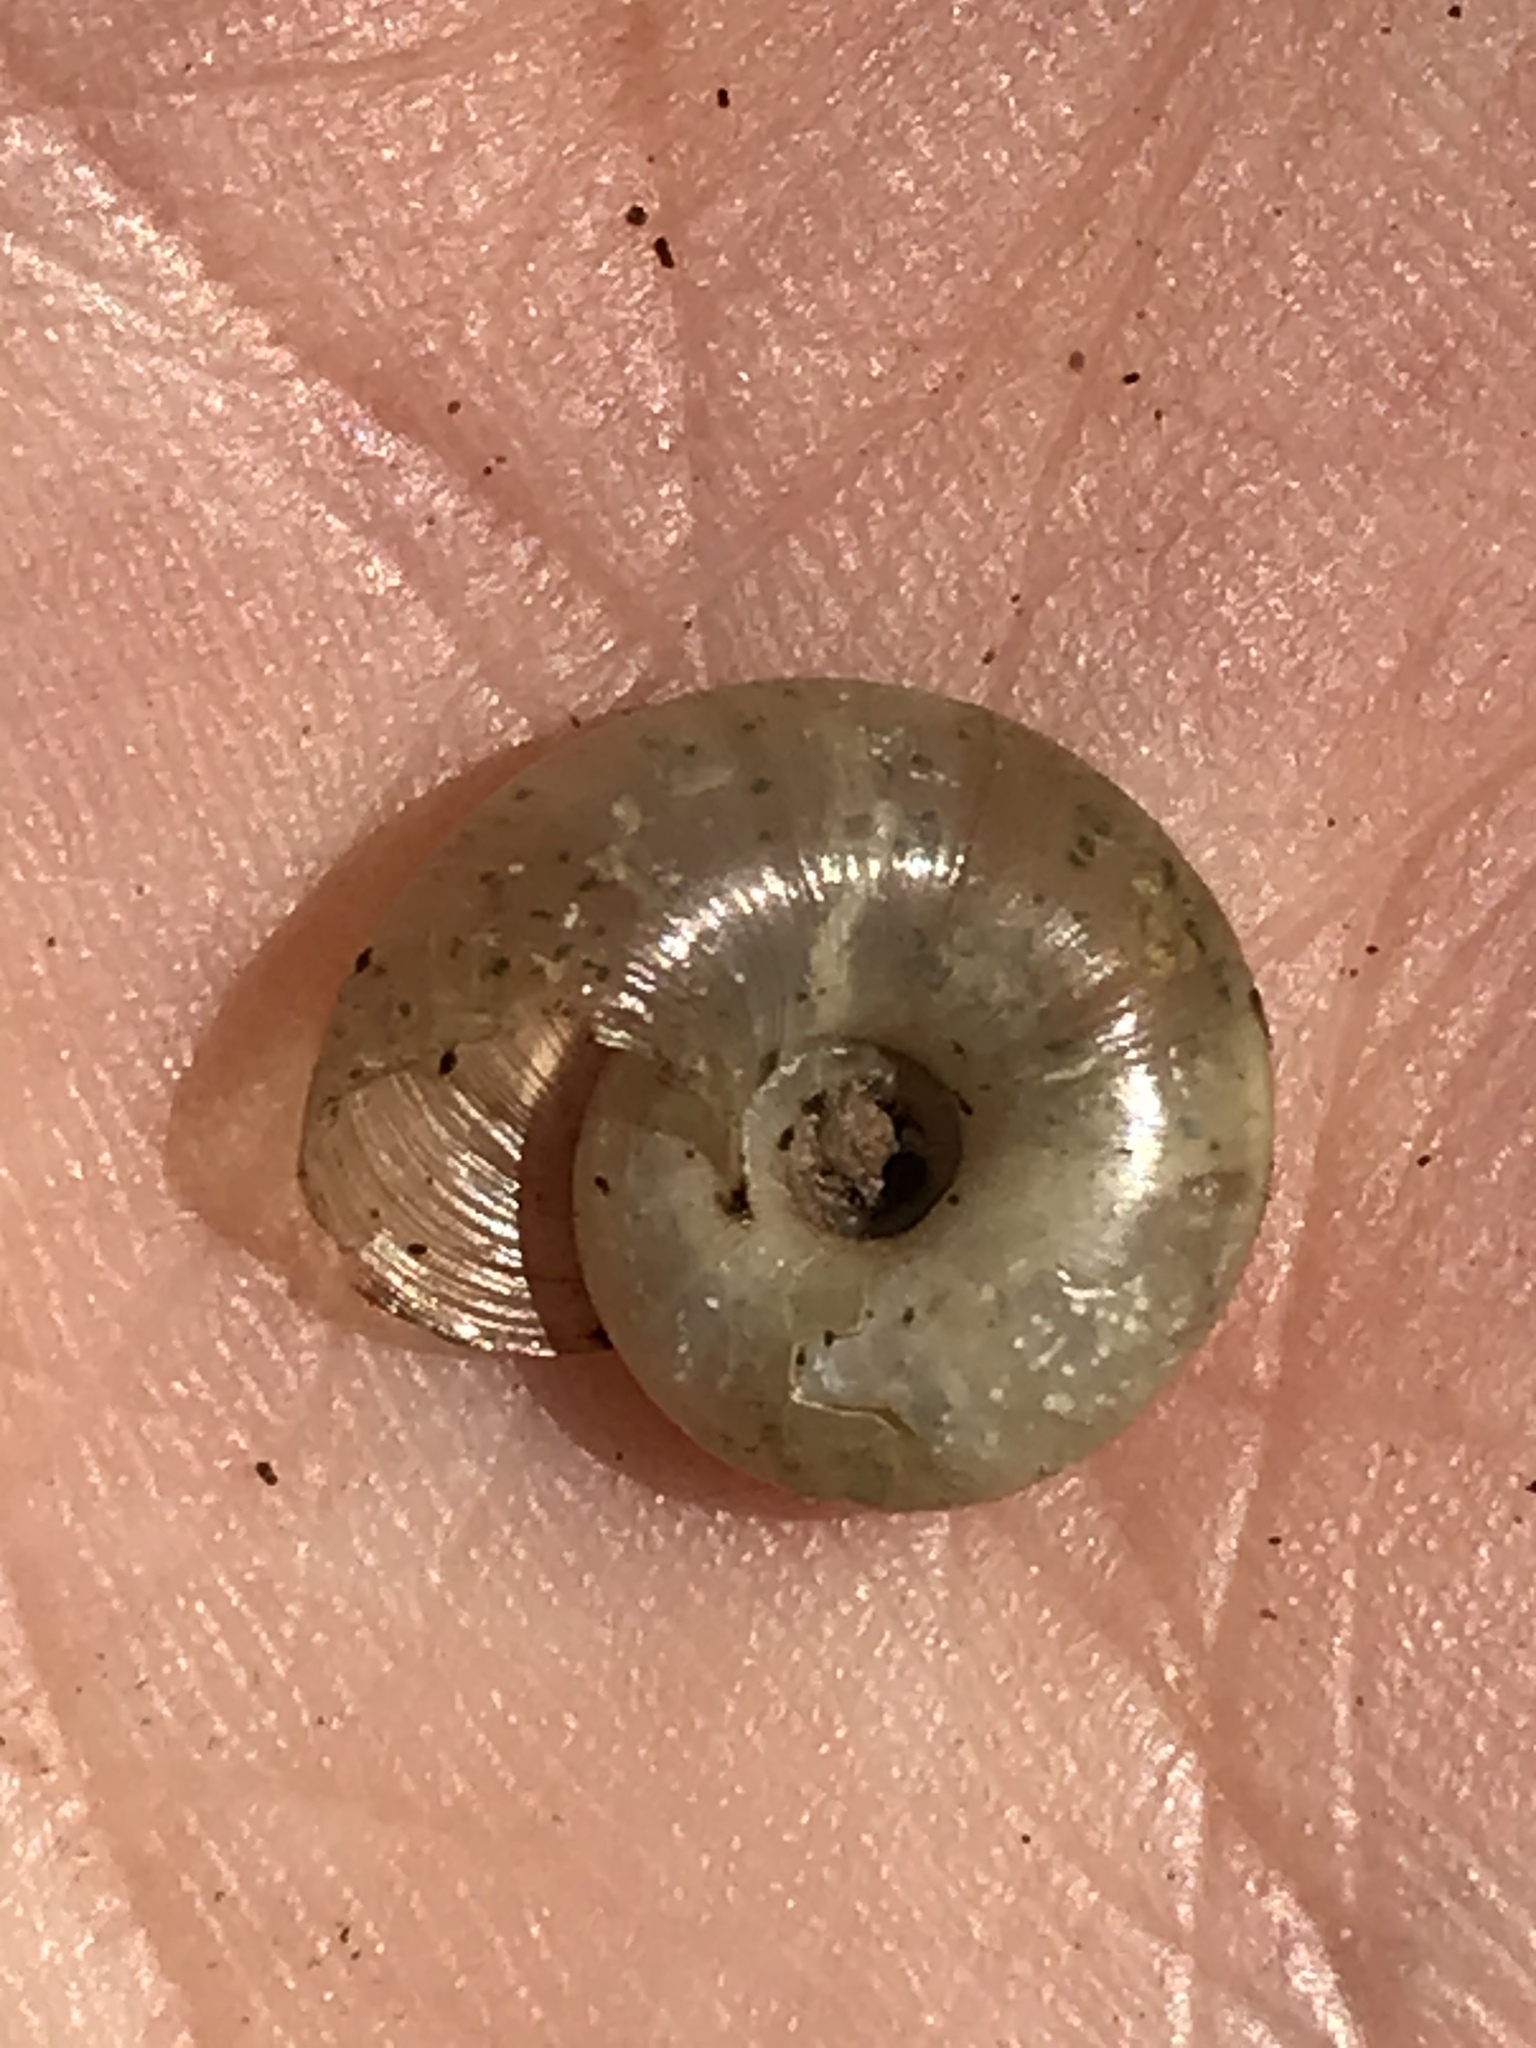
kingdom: Animalia
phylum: Mollusca
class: Gastropoda
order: Stylommatophora
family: Haplotrematidae
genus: Haplotrema
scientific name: Haplotrema minimum
